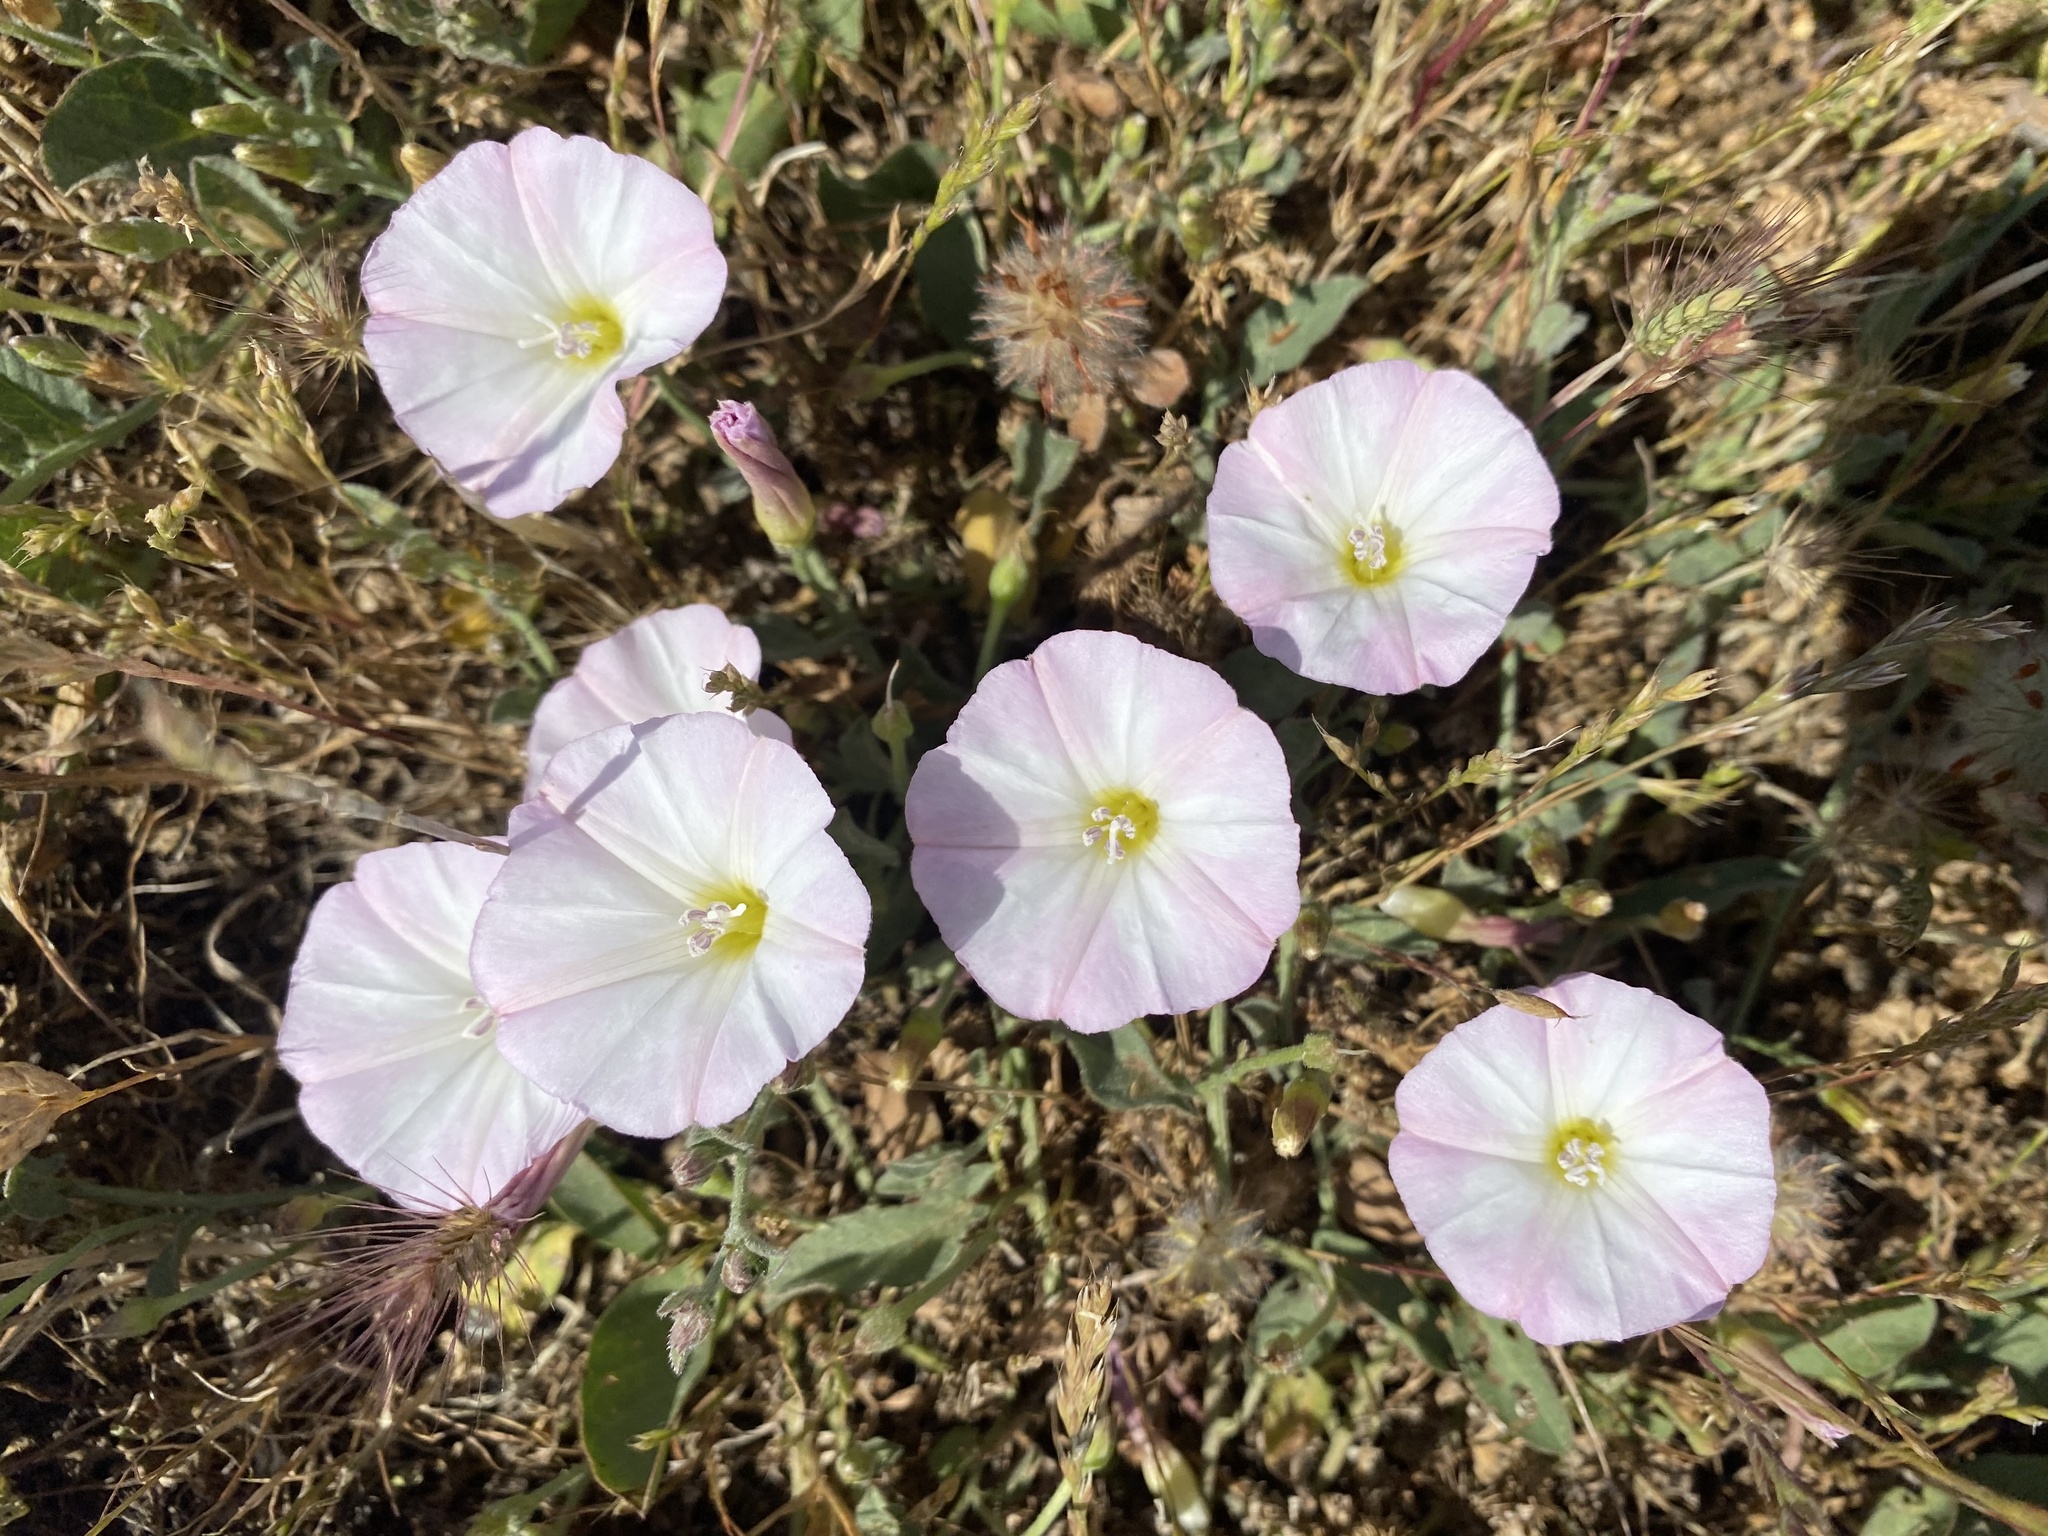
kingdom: Plantae
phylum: Tracheophyta
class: Magnoliopsida
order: Solanales
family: Convolvulaceae
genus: Convolvulus
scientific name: Convolvulus arvensis
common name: Field bindweed
